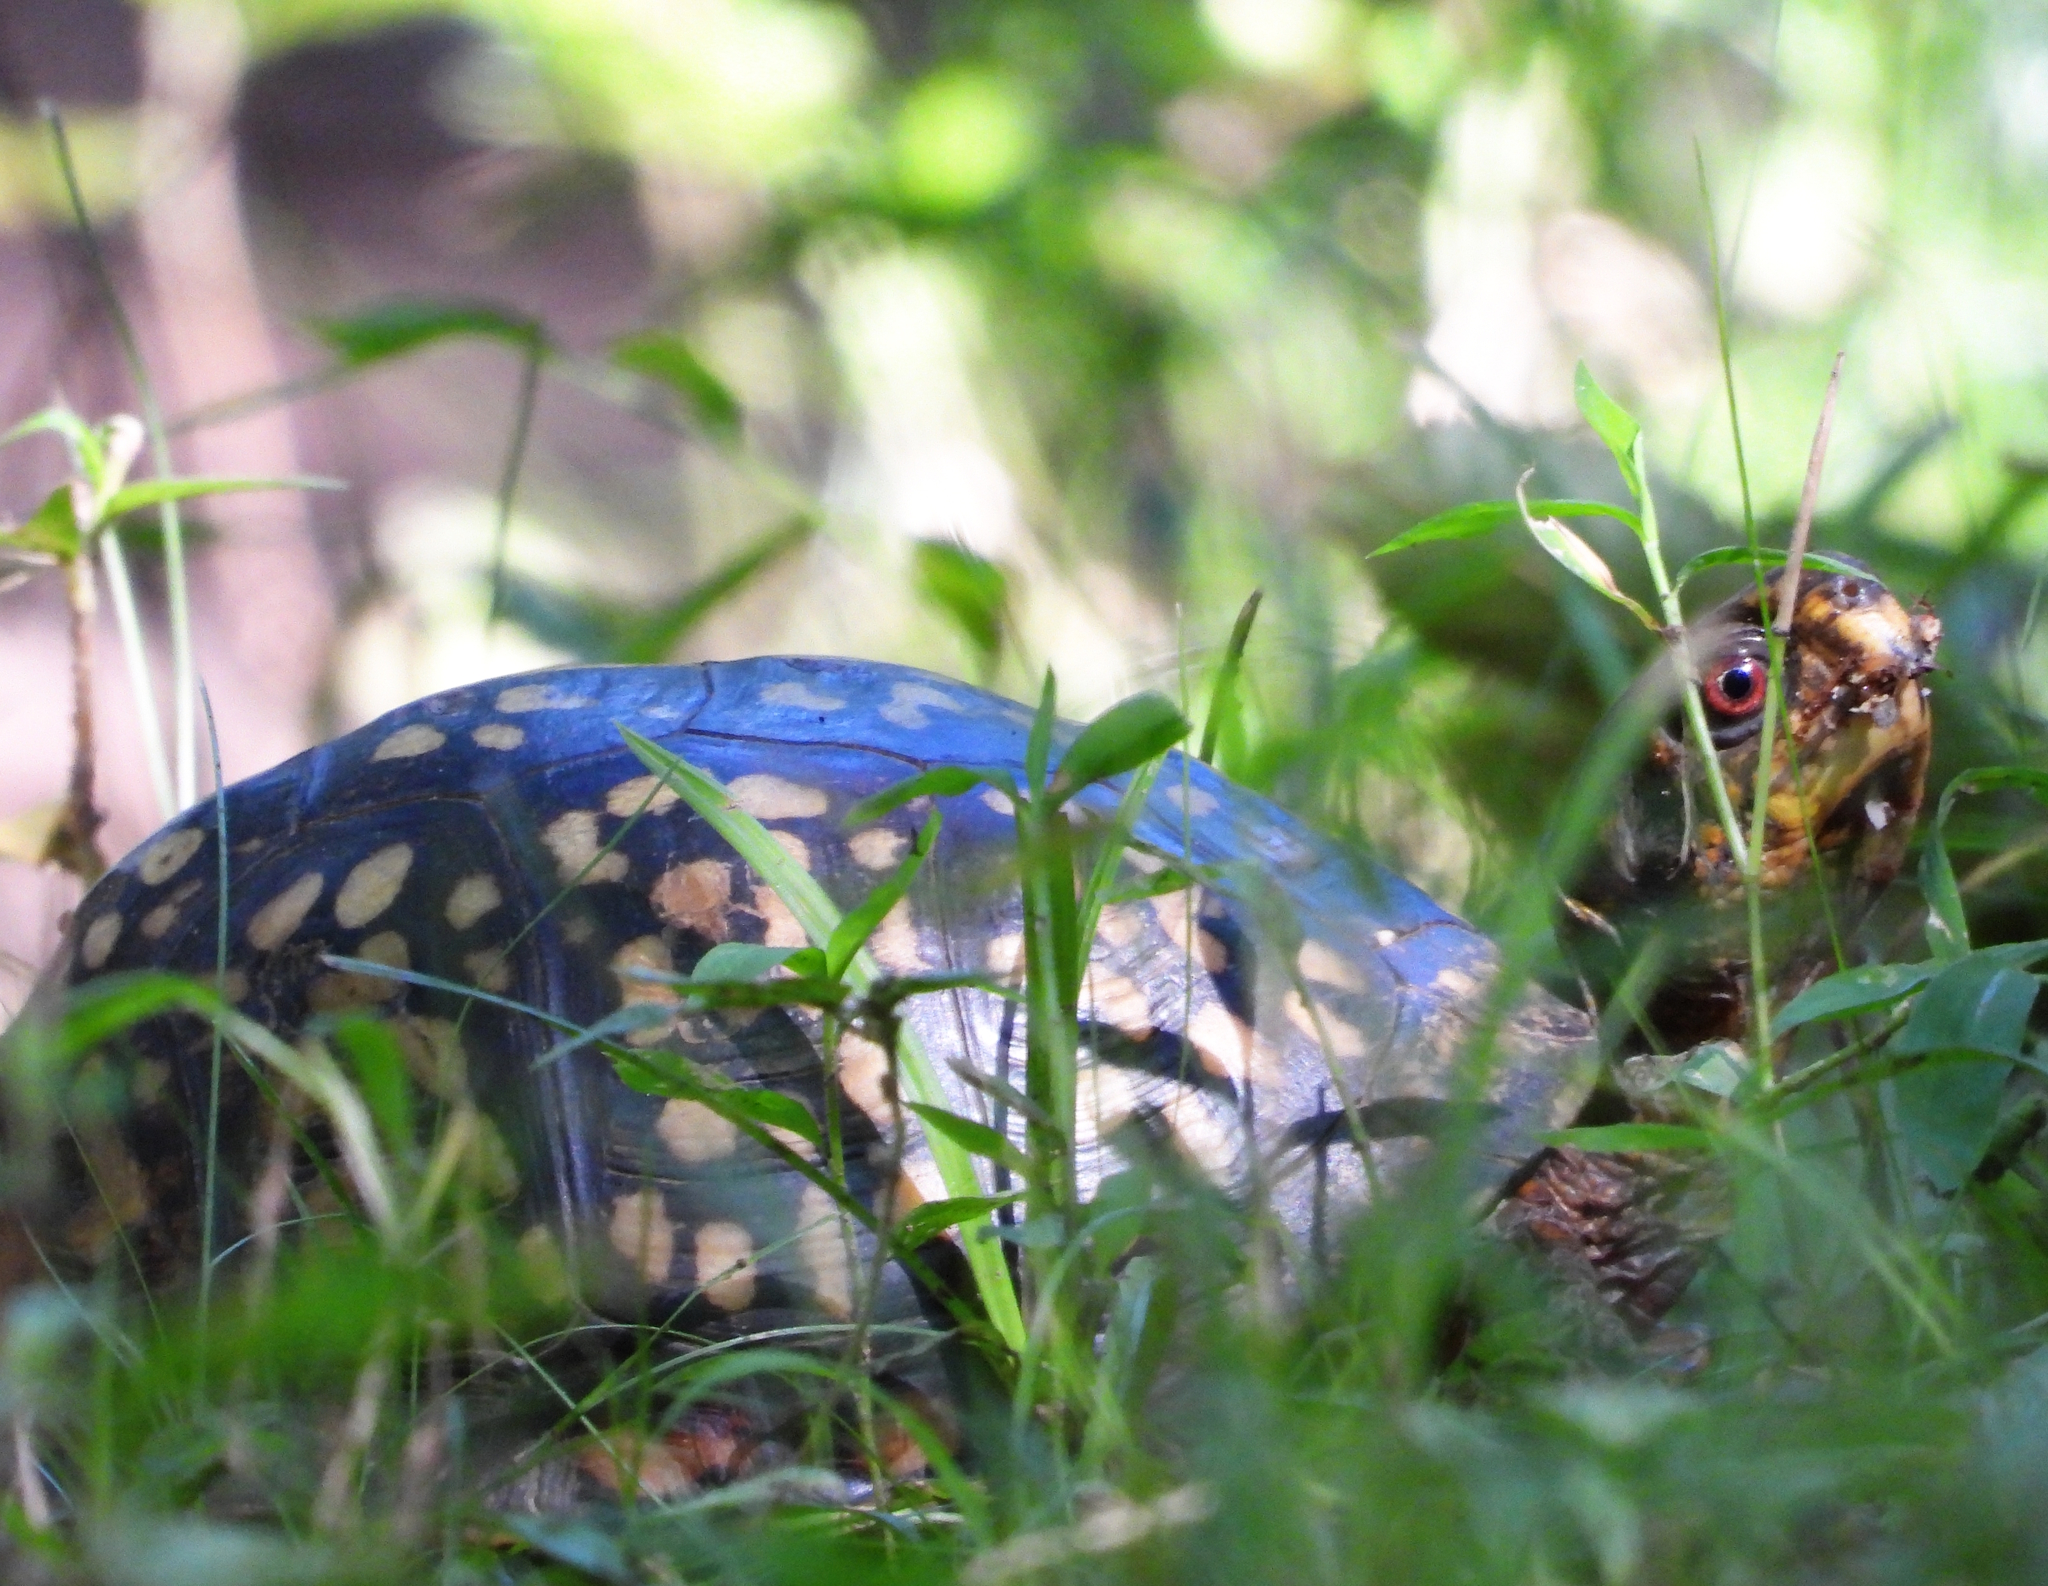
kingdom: Animalia
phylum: Chordata
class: Testudines
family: Emydidae
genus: Terrapene
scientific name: Terrapene carolina
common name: Common box turtle
